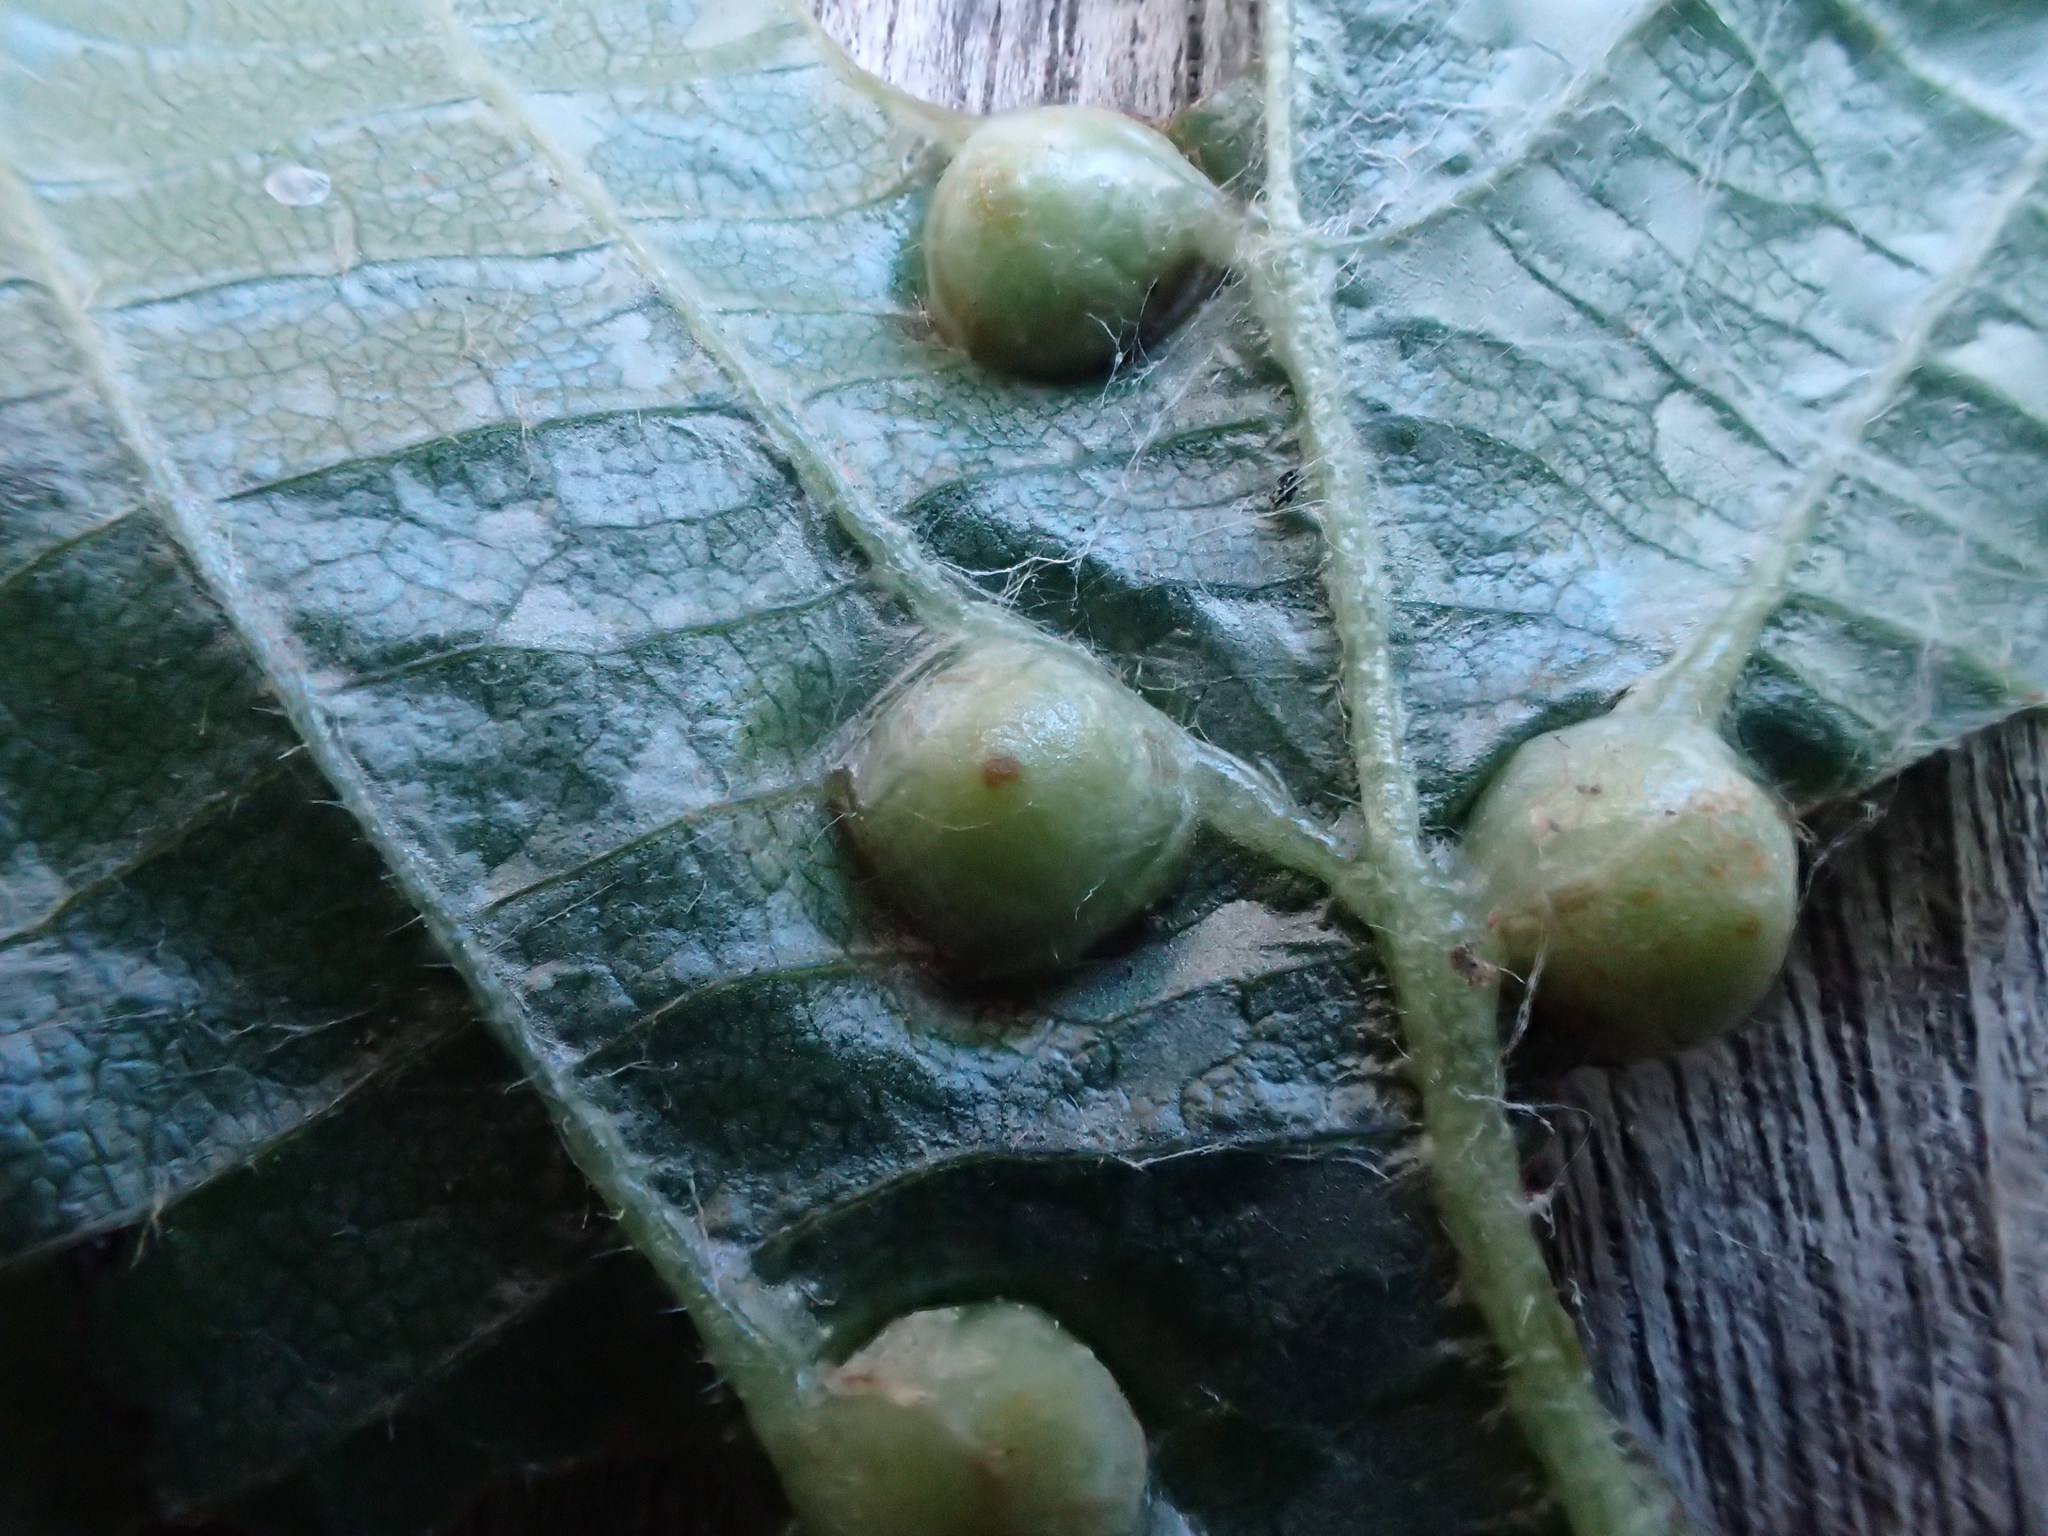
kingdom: Animalia
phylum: Arthropoda
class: Insecta
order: Diptera
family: Cecidomyiidae
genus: Didymomyia
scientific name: Didymomyia tiliacea
